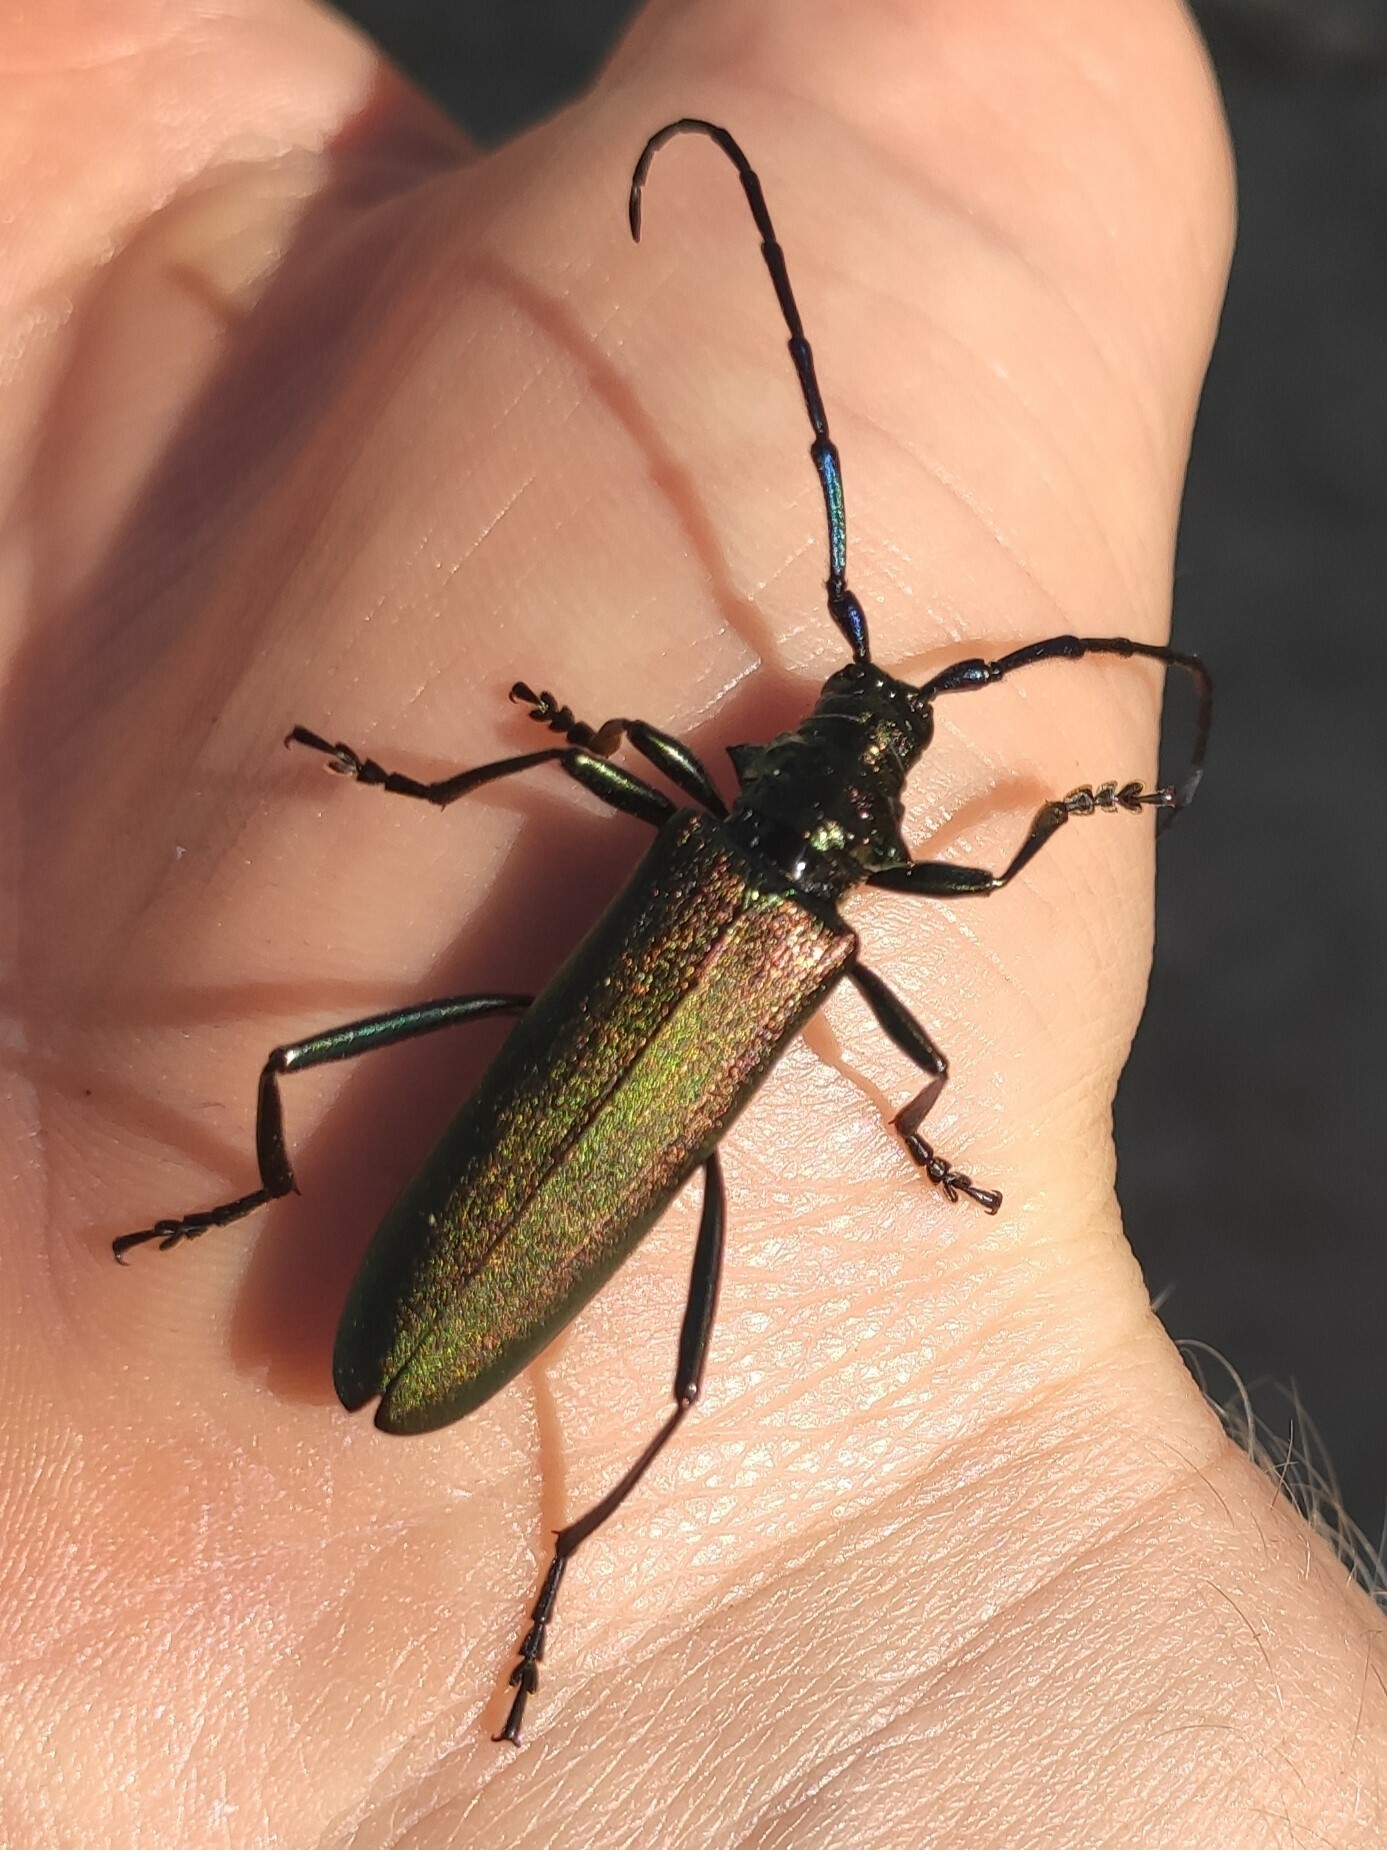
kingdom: Animalia
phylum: Arthropoda
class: Insecta
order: Coleoptera
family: Cerambycidae
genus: Aromia
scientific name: Aromia moschata
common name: Musk beetle
